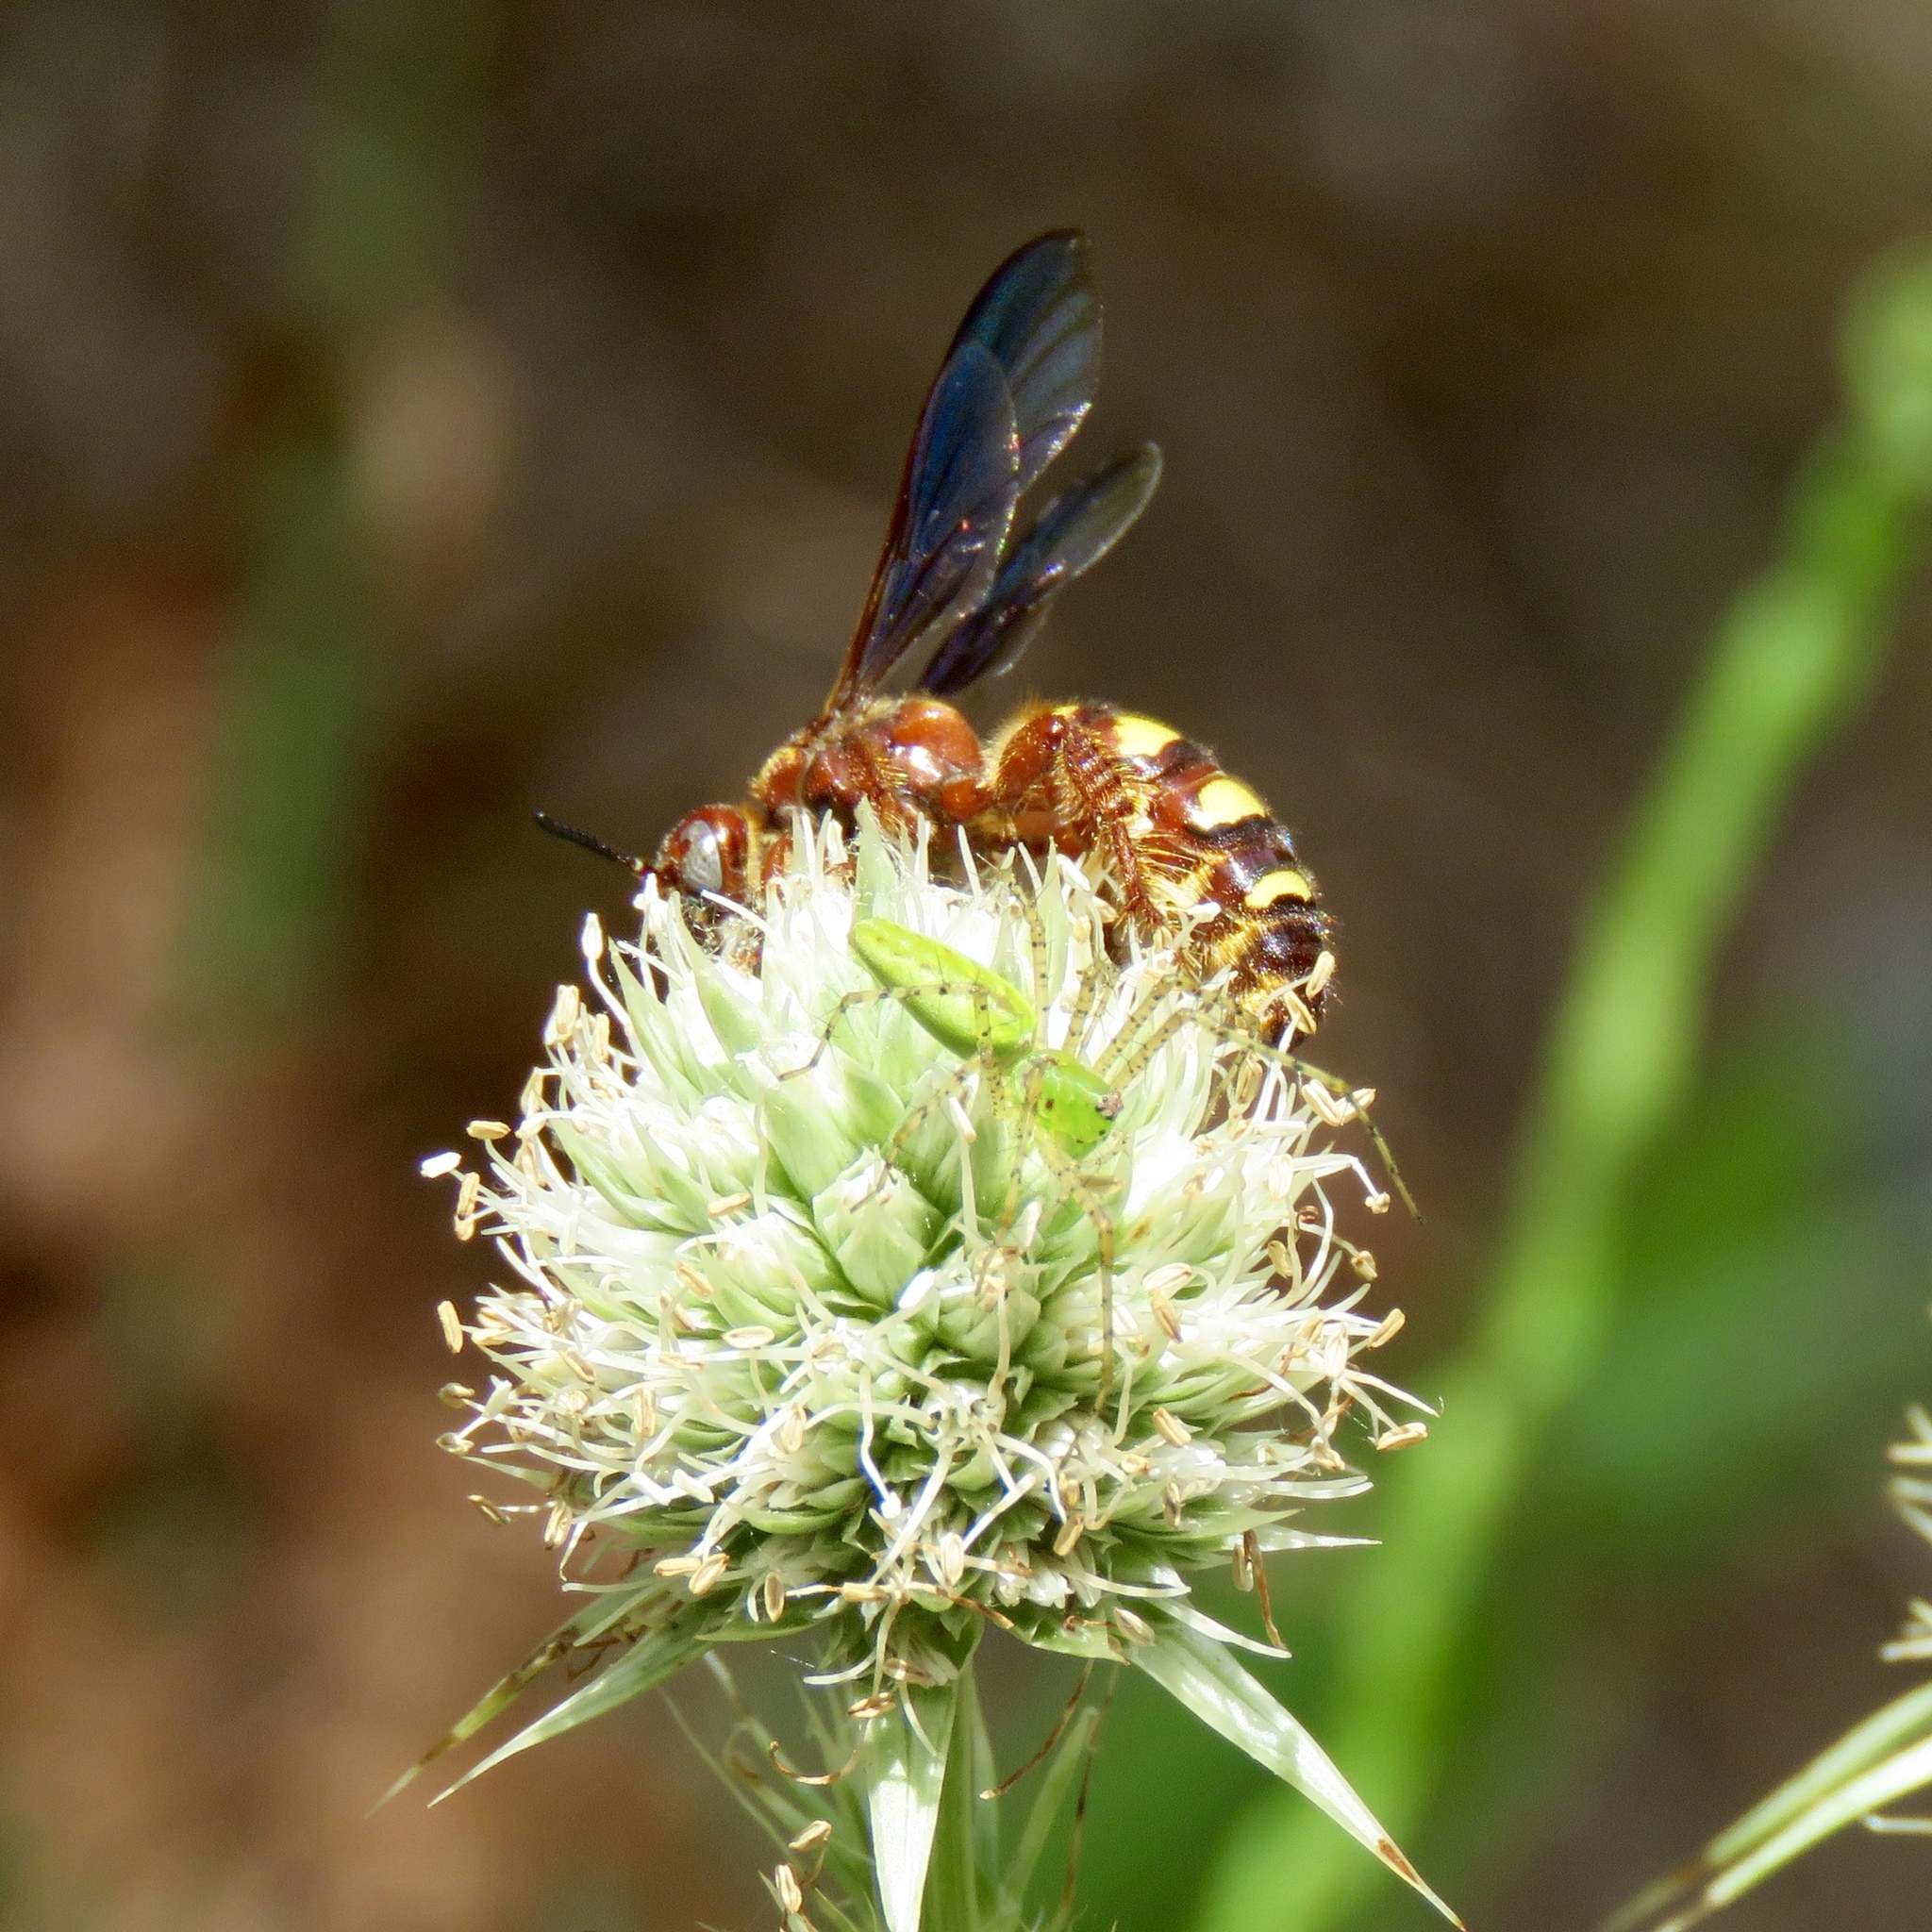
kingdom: Animalia
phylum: Arthropoda
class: Insecta
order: Hymenoptera
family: Scoliidae
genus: Colpa
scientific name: Colpa octomaculata
